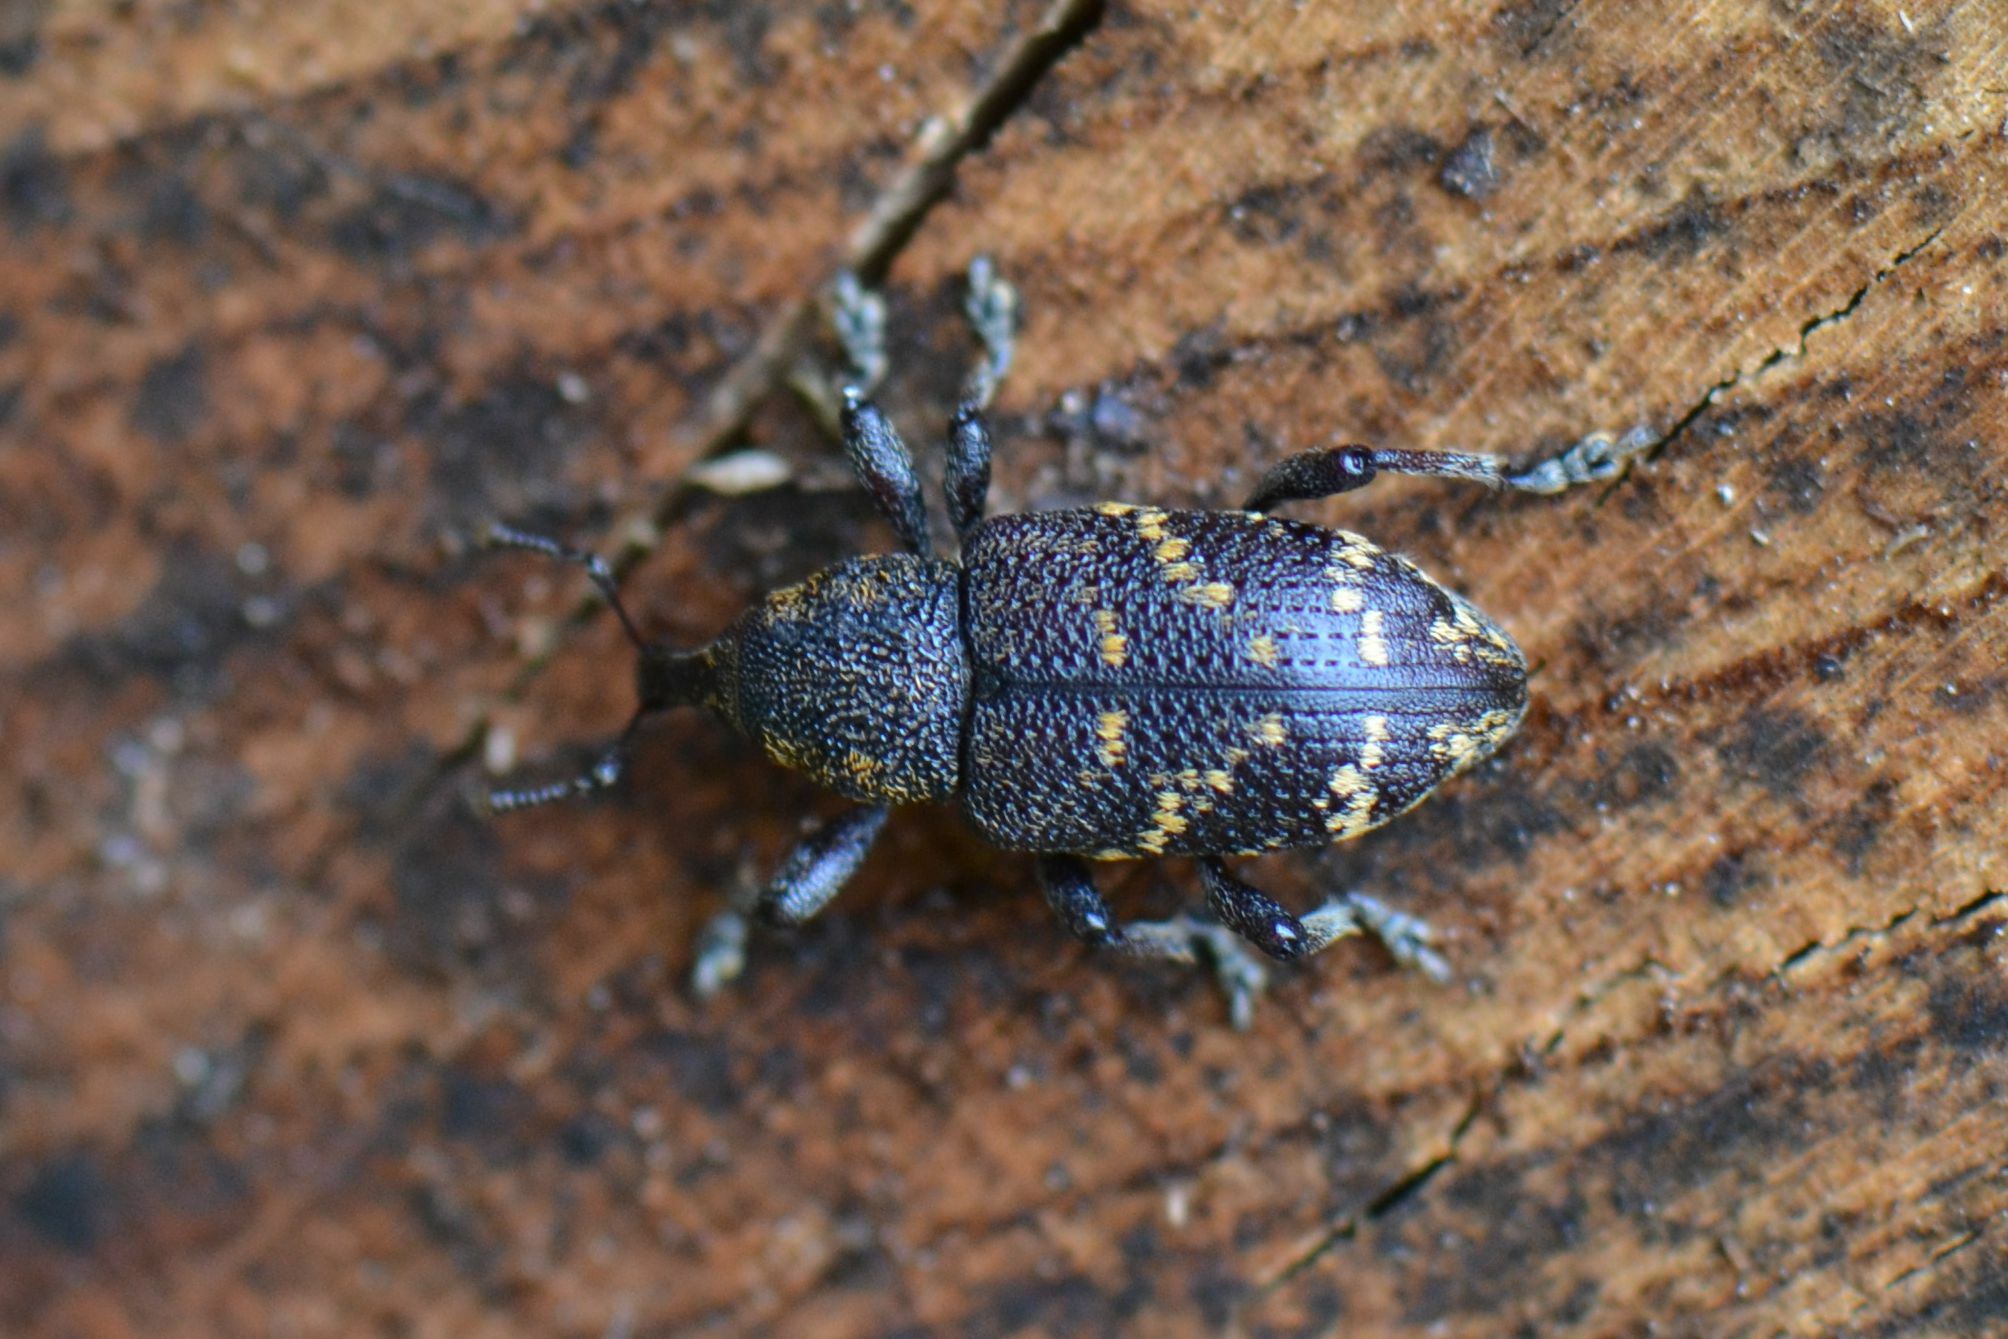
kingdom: Animalia
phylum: Arthropoda
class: Insecta
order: Coleoptera
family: Curculionidae
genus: Hylobius
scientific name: Hylobius abietis
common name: Large pine weevil
